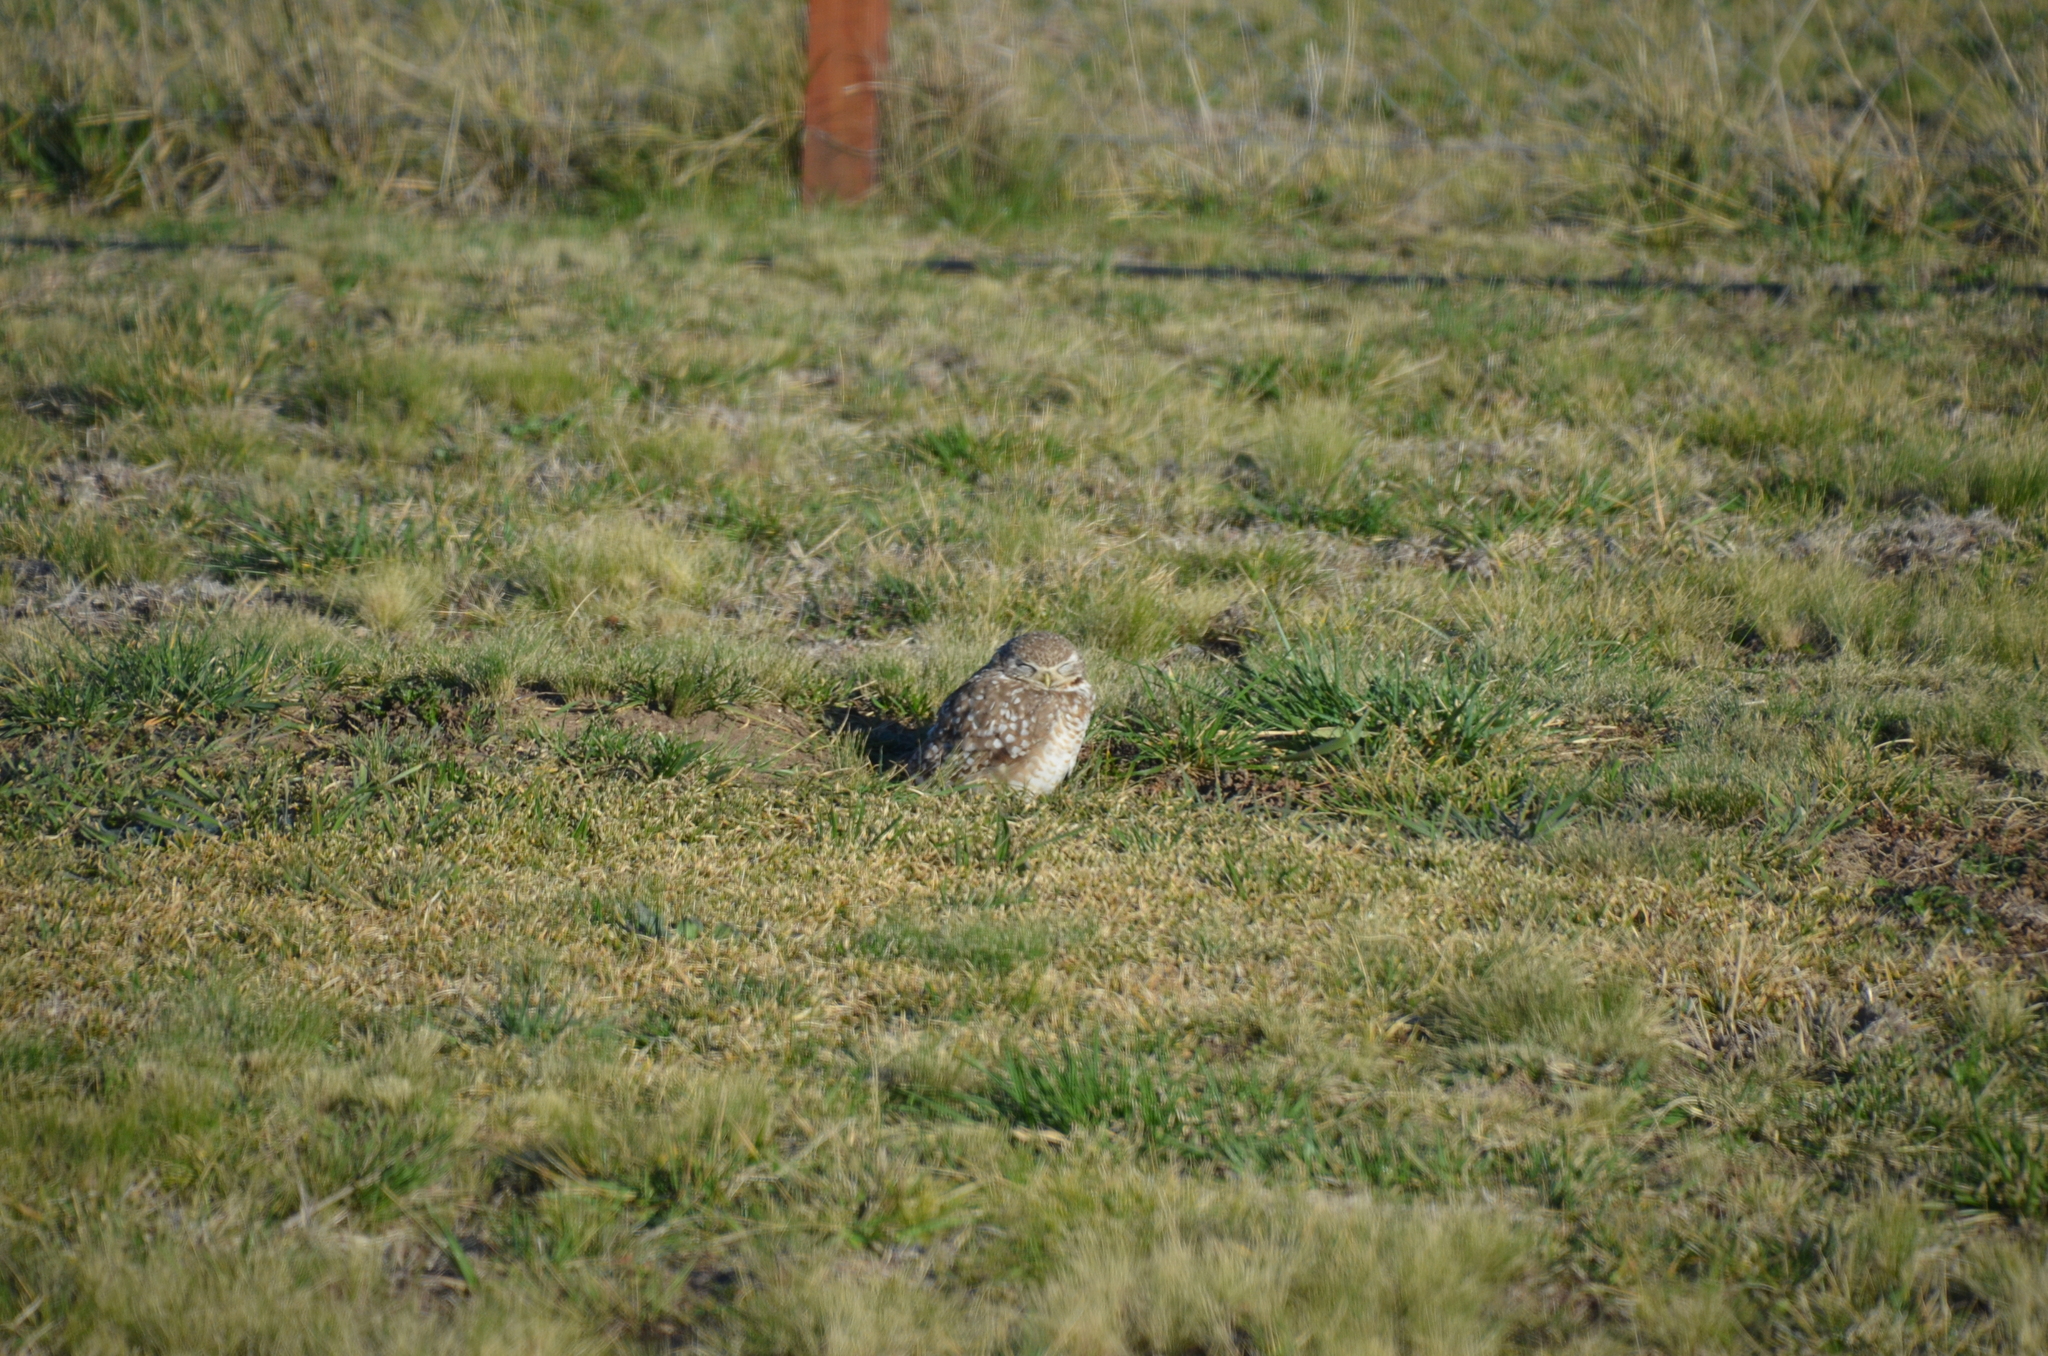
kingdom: Animalia
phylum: Chordata
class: Aves
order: Strigiformes
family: Strigidae
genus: Athene
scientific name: Athene cunicularia
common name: Burrowing owl
